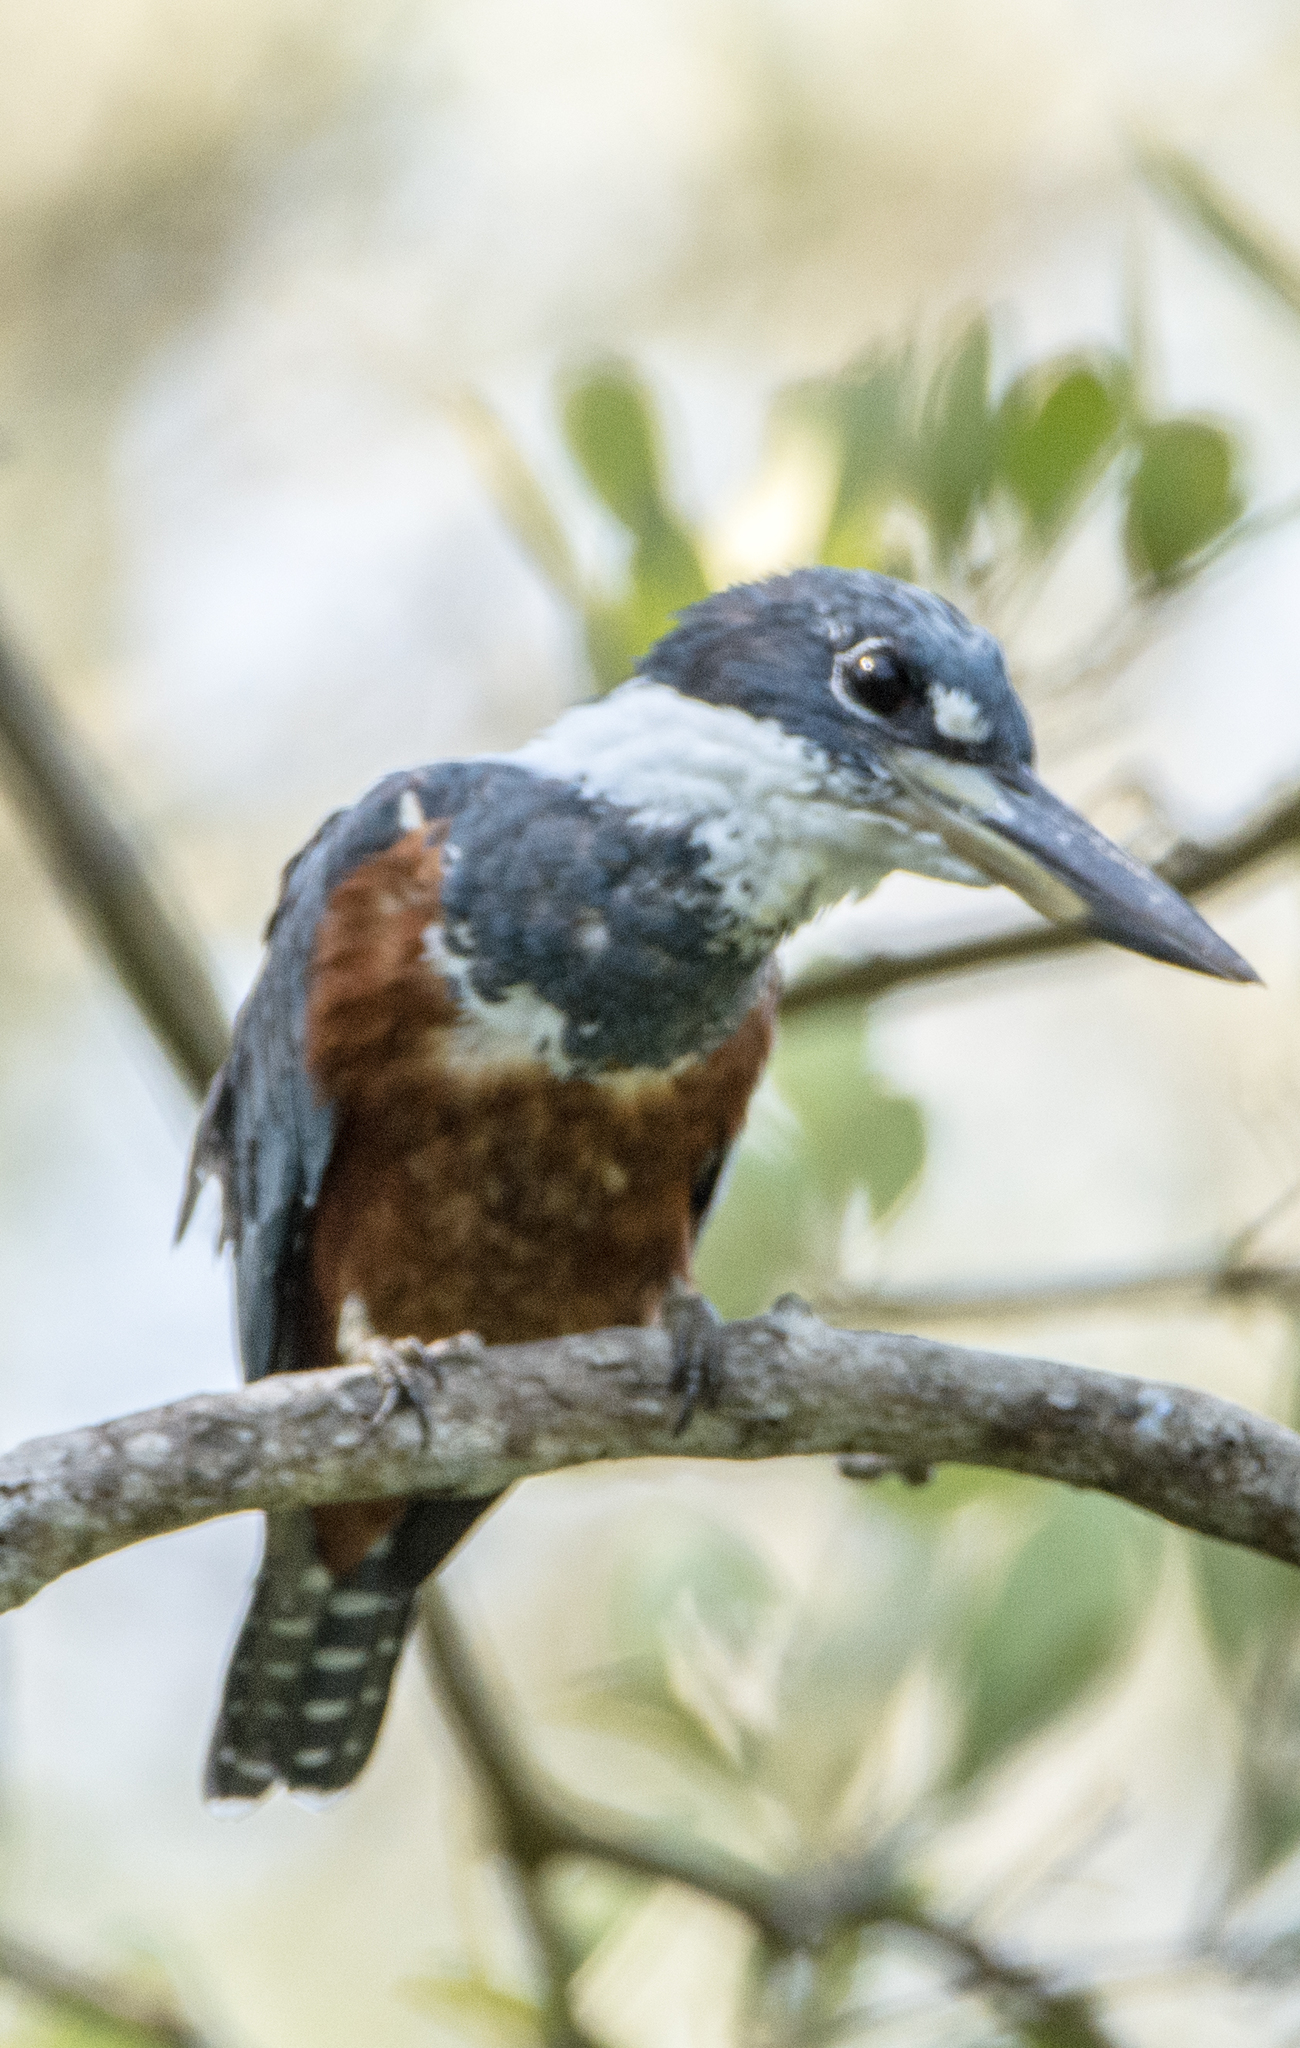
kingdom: Animalia
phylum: Chordata
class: Aves
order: Coraciiformes
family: Alcedinidae
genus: Megaceryle
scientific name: Megaceryle torquata
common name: Ringed kingfisher
